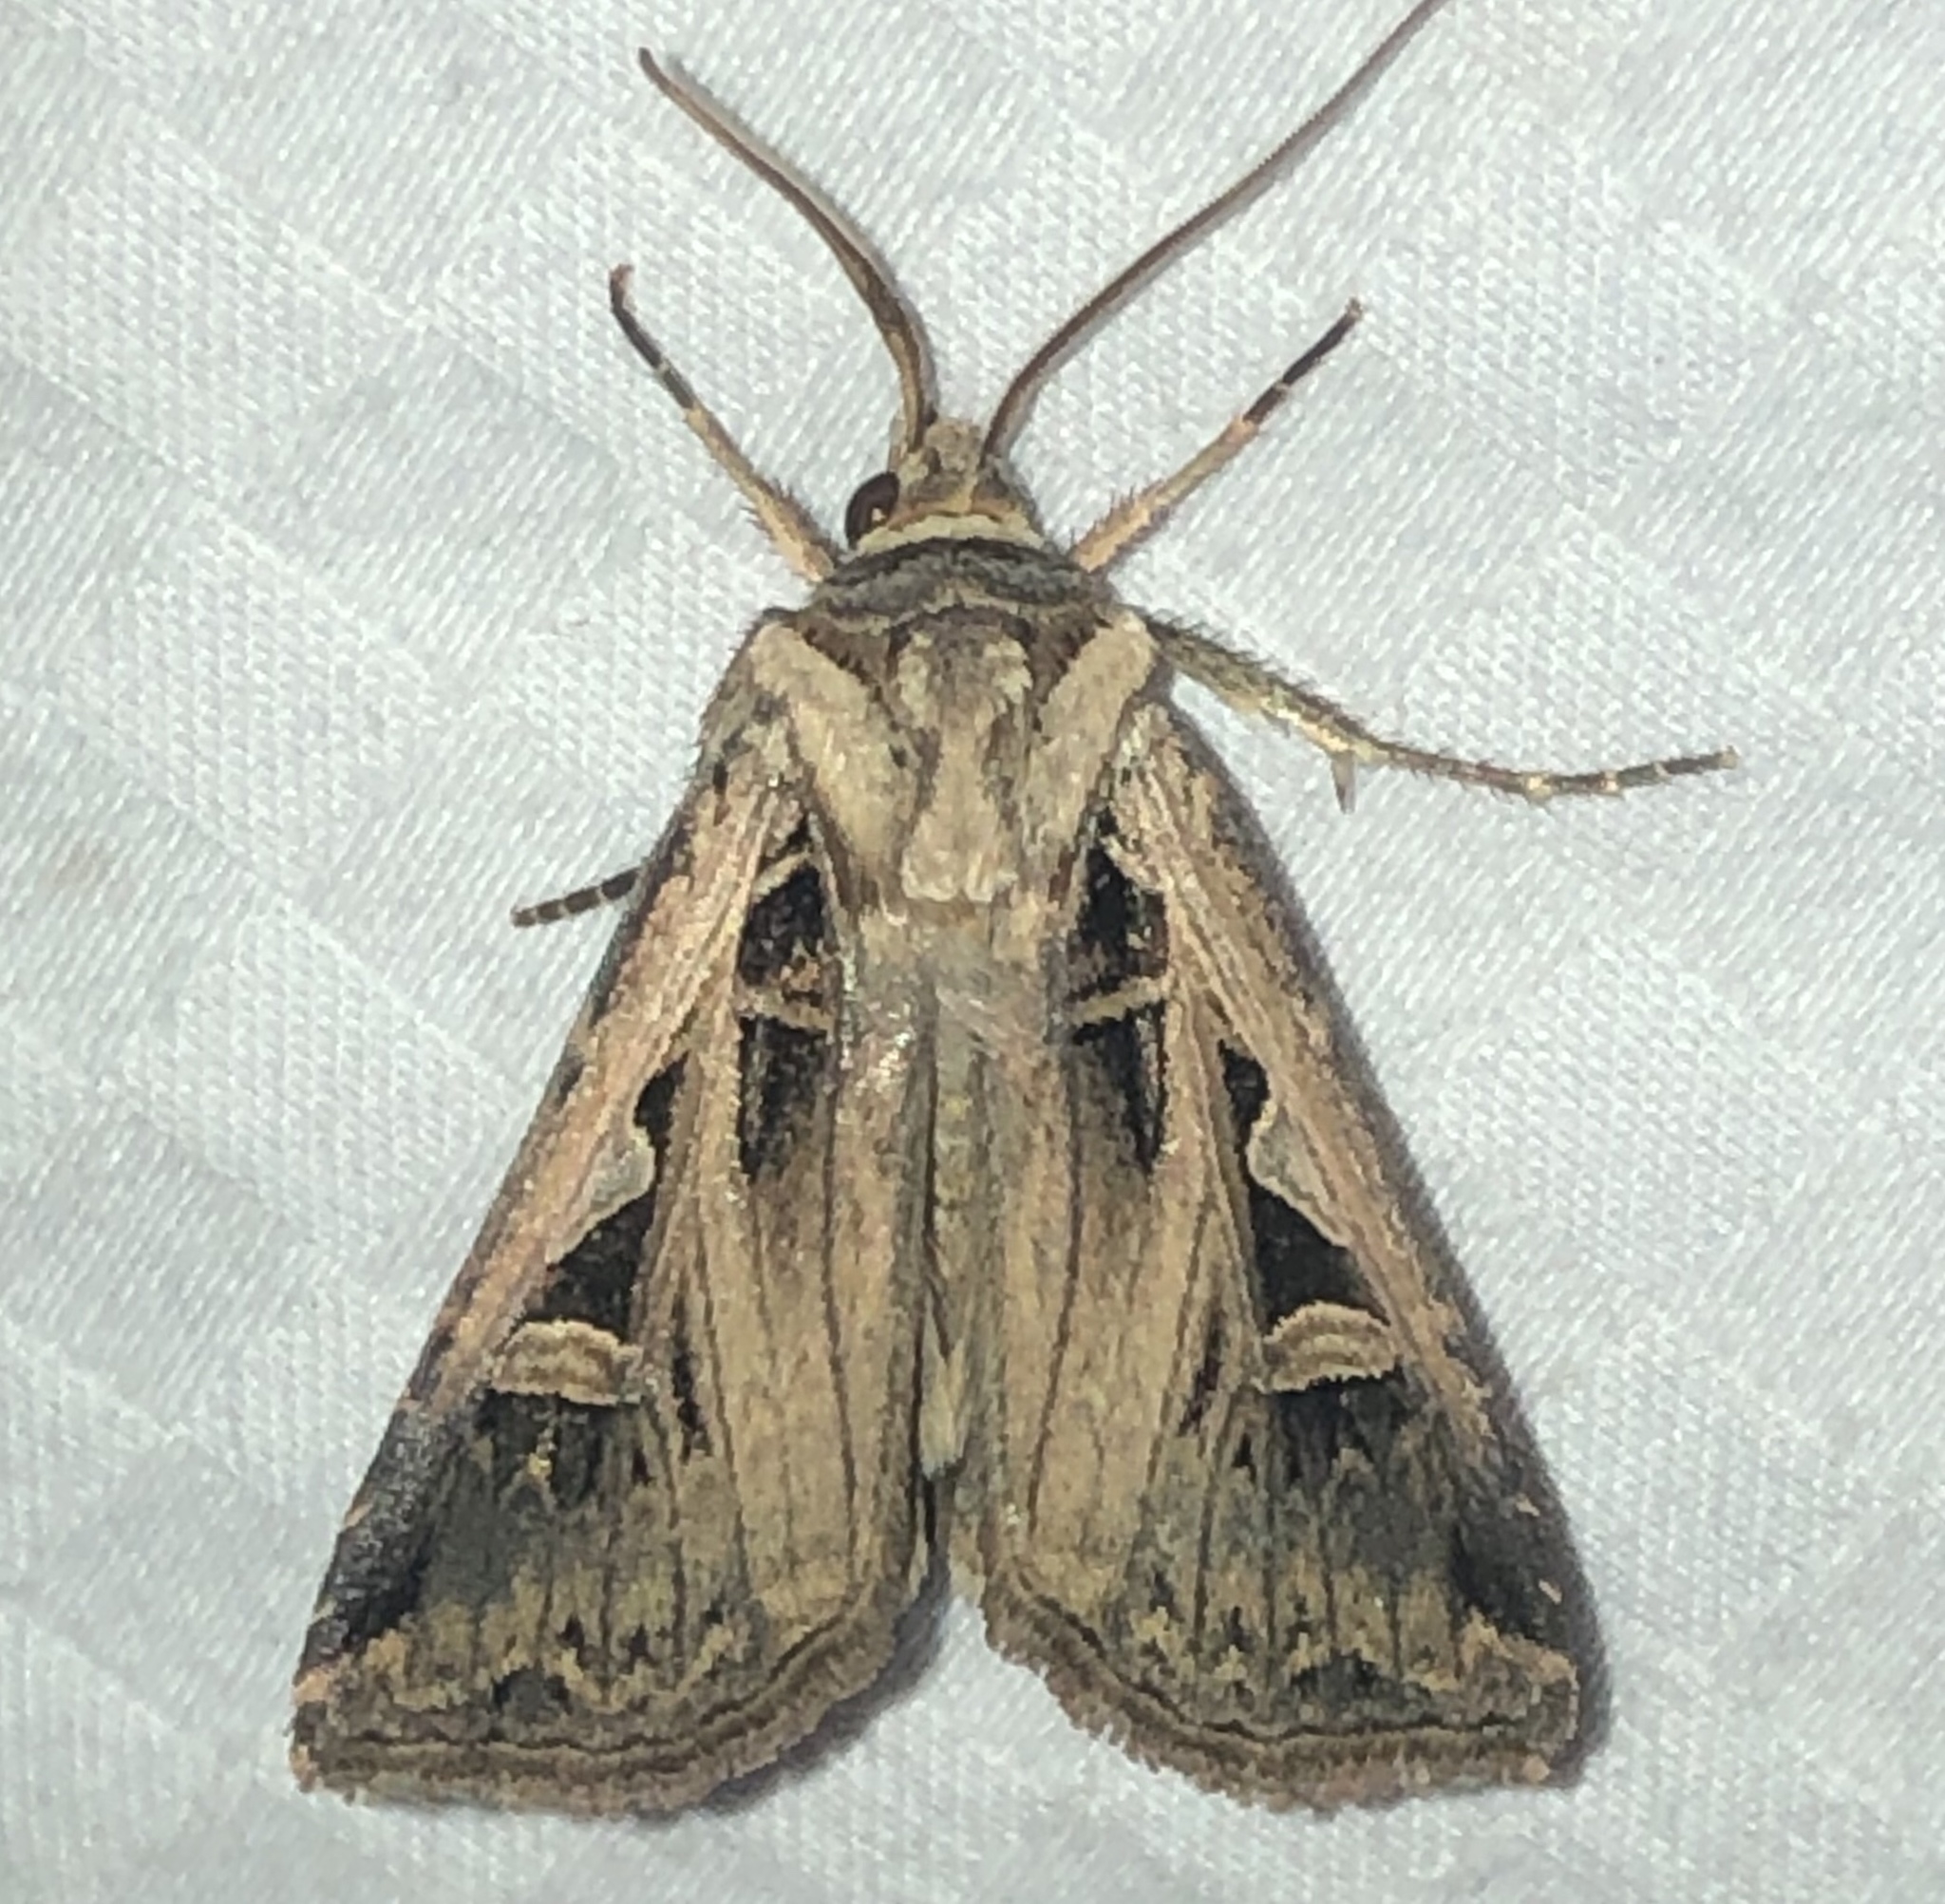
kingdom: Animalia
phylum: Arthropoda
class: Insecta
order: Lepidoptera
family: Noctuidae
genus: Feltia
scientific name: Feltia subgothica
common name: Gothic dart
